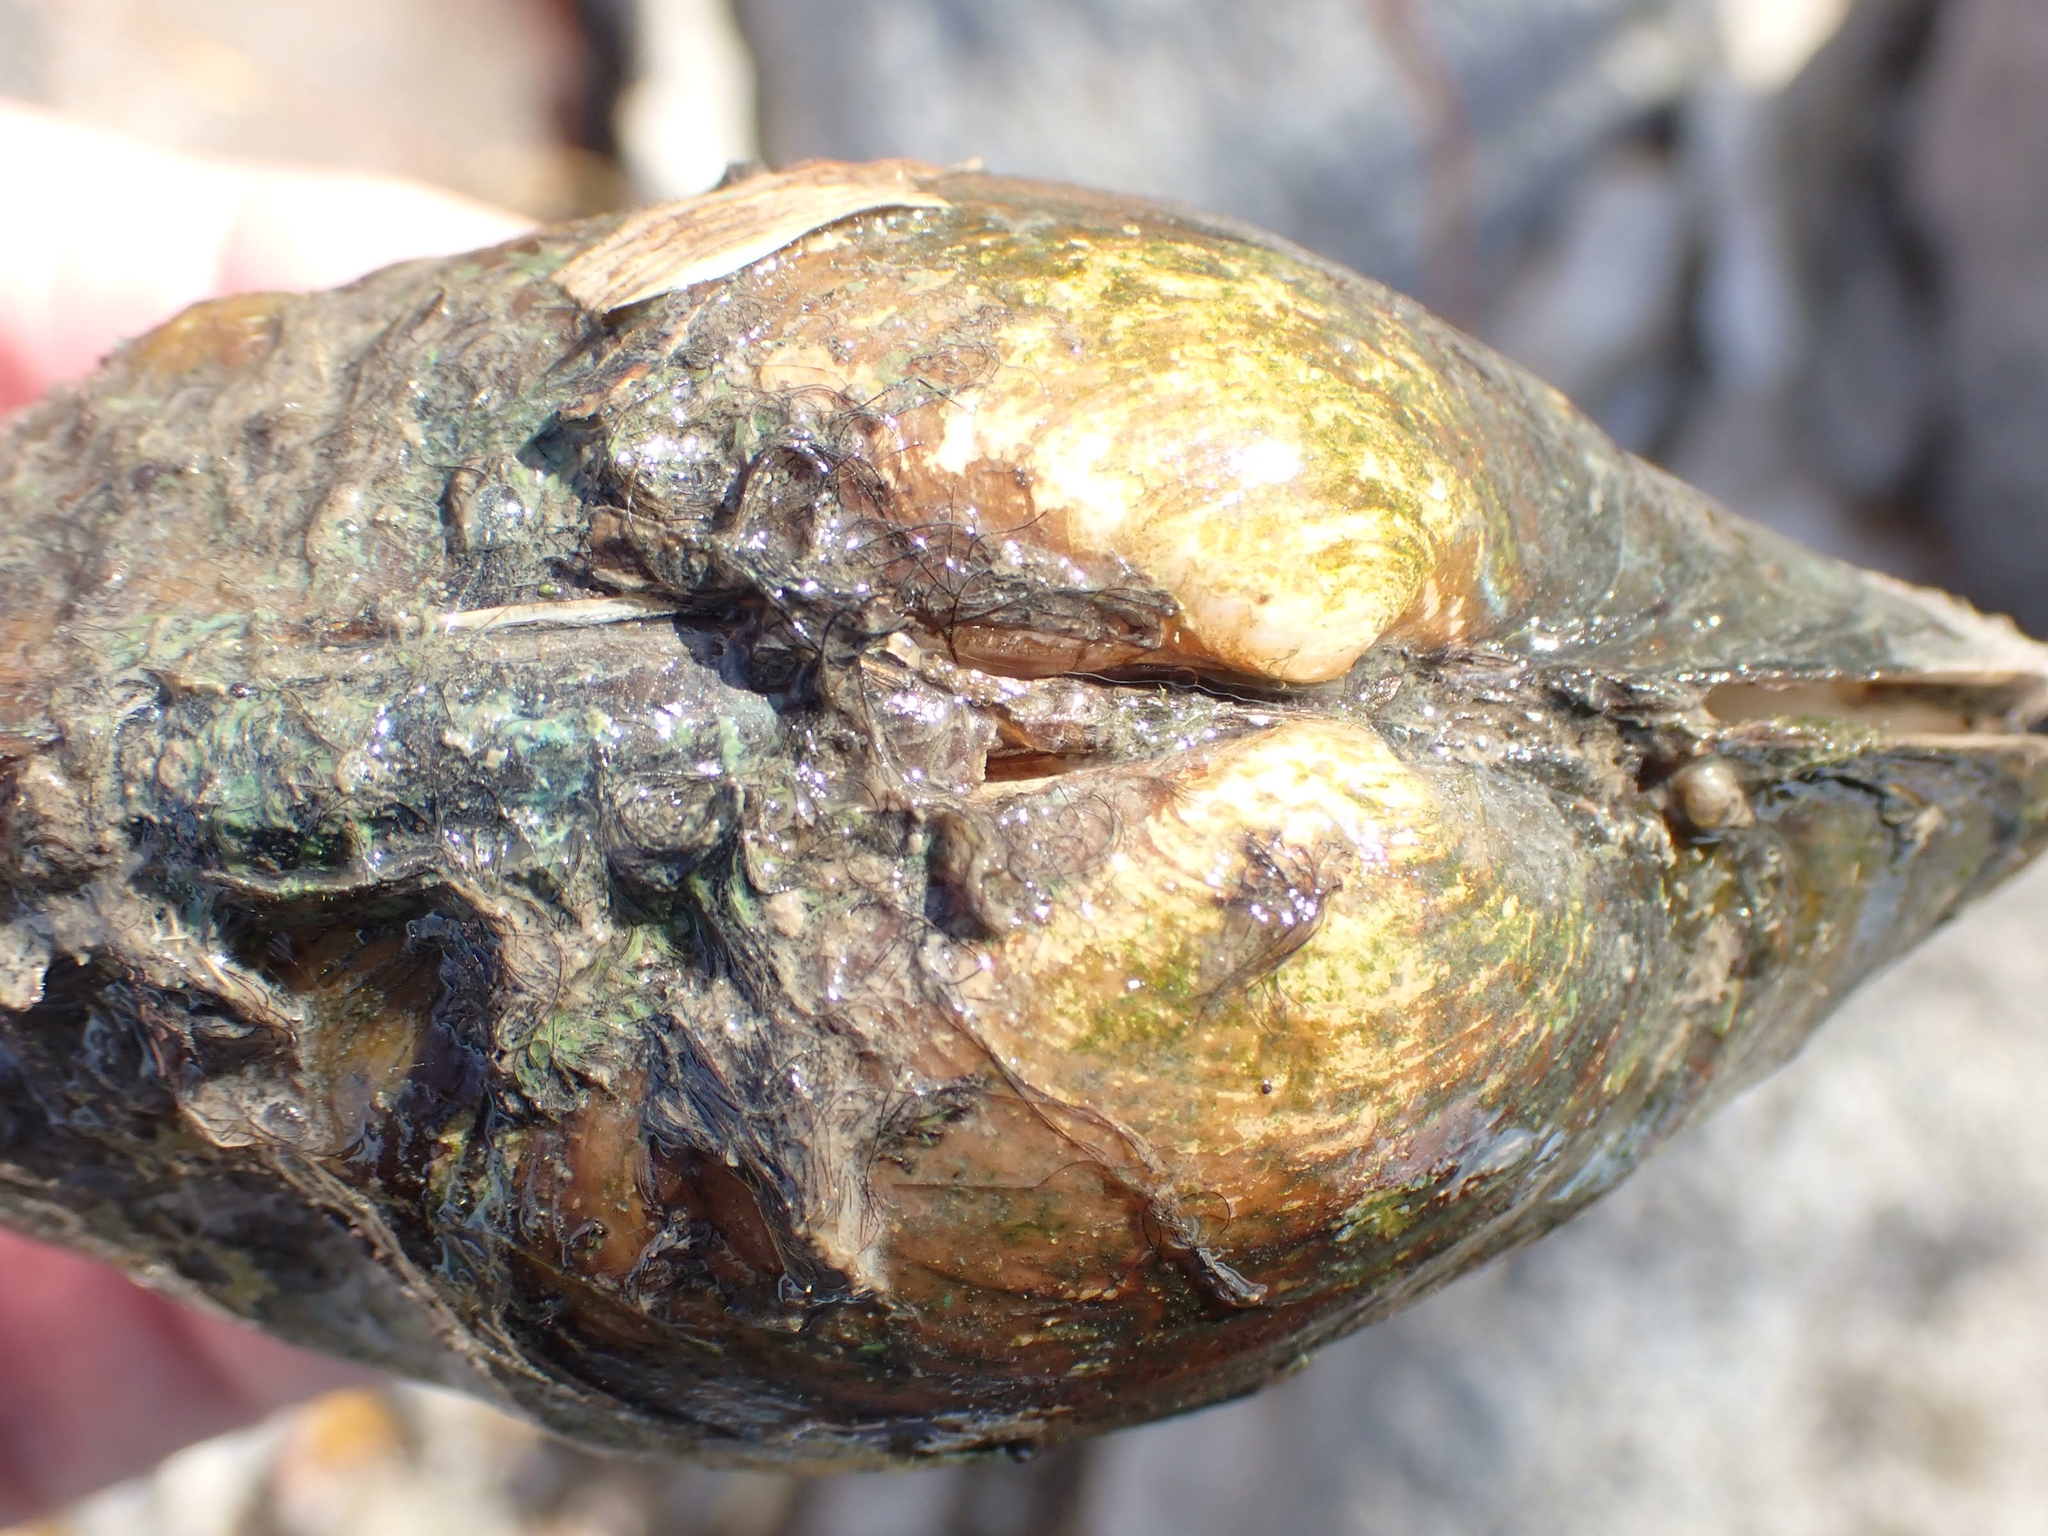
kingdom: Animalia
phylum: Mollusca
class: Bivalvia
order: Unionida
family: Unionidae
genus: Lampsilis
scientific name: Lampsilis cardium
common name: Plain pocketbook
